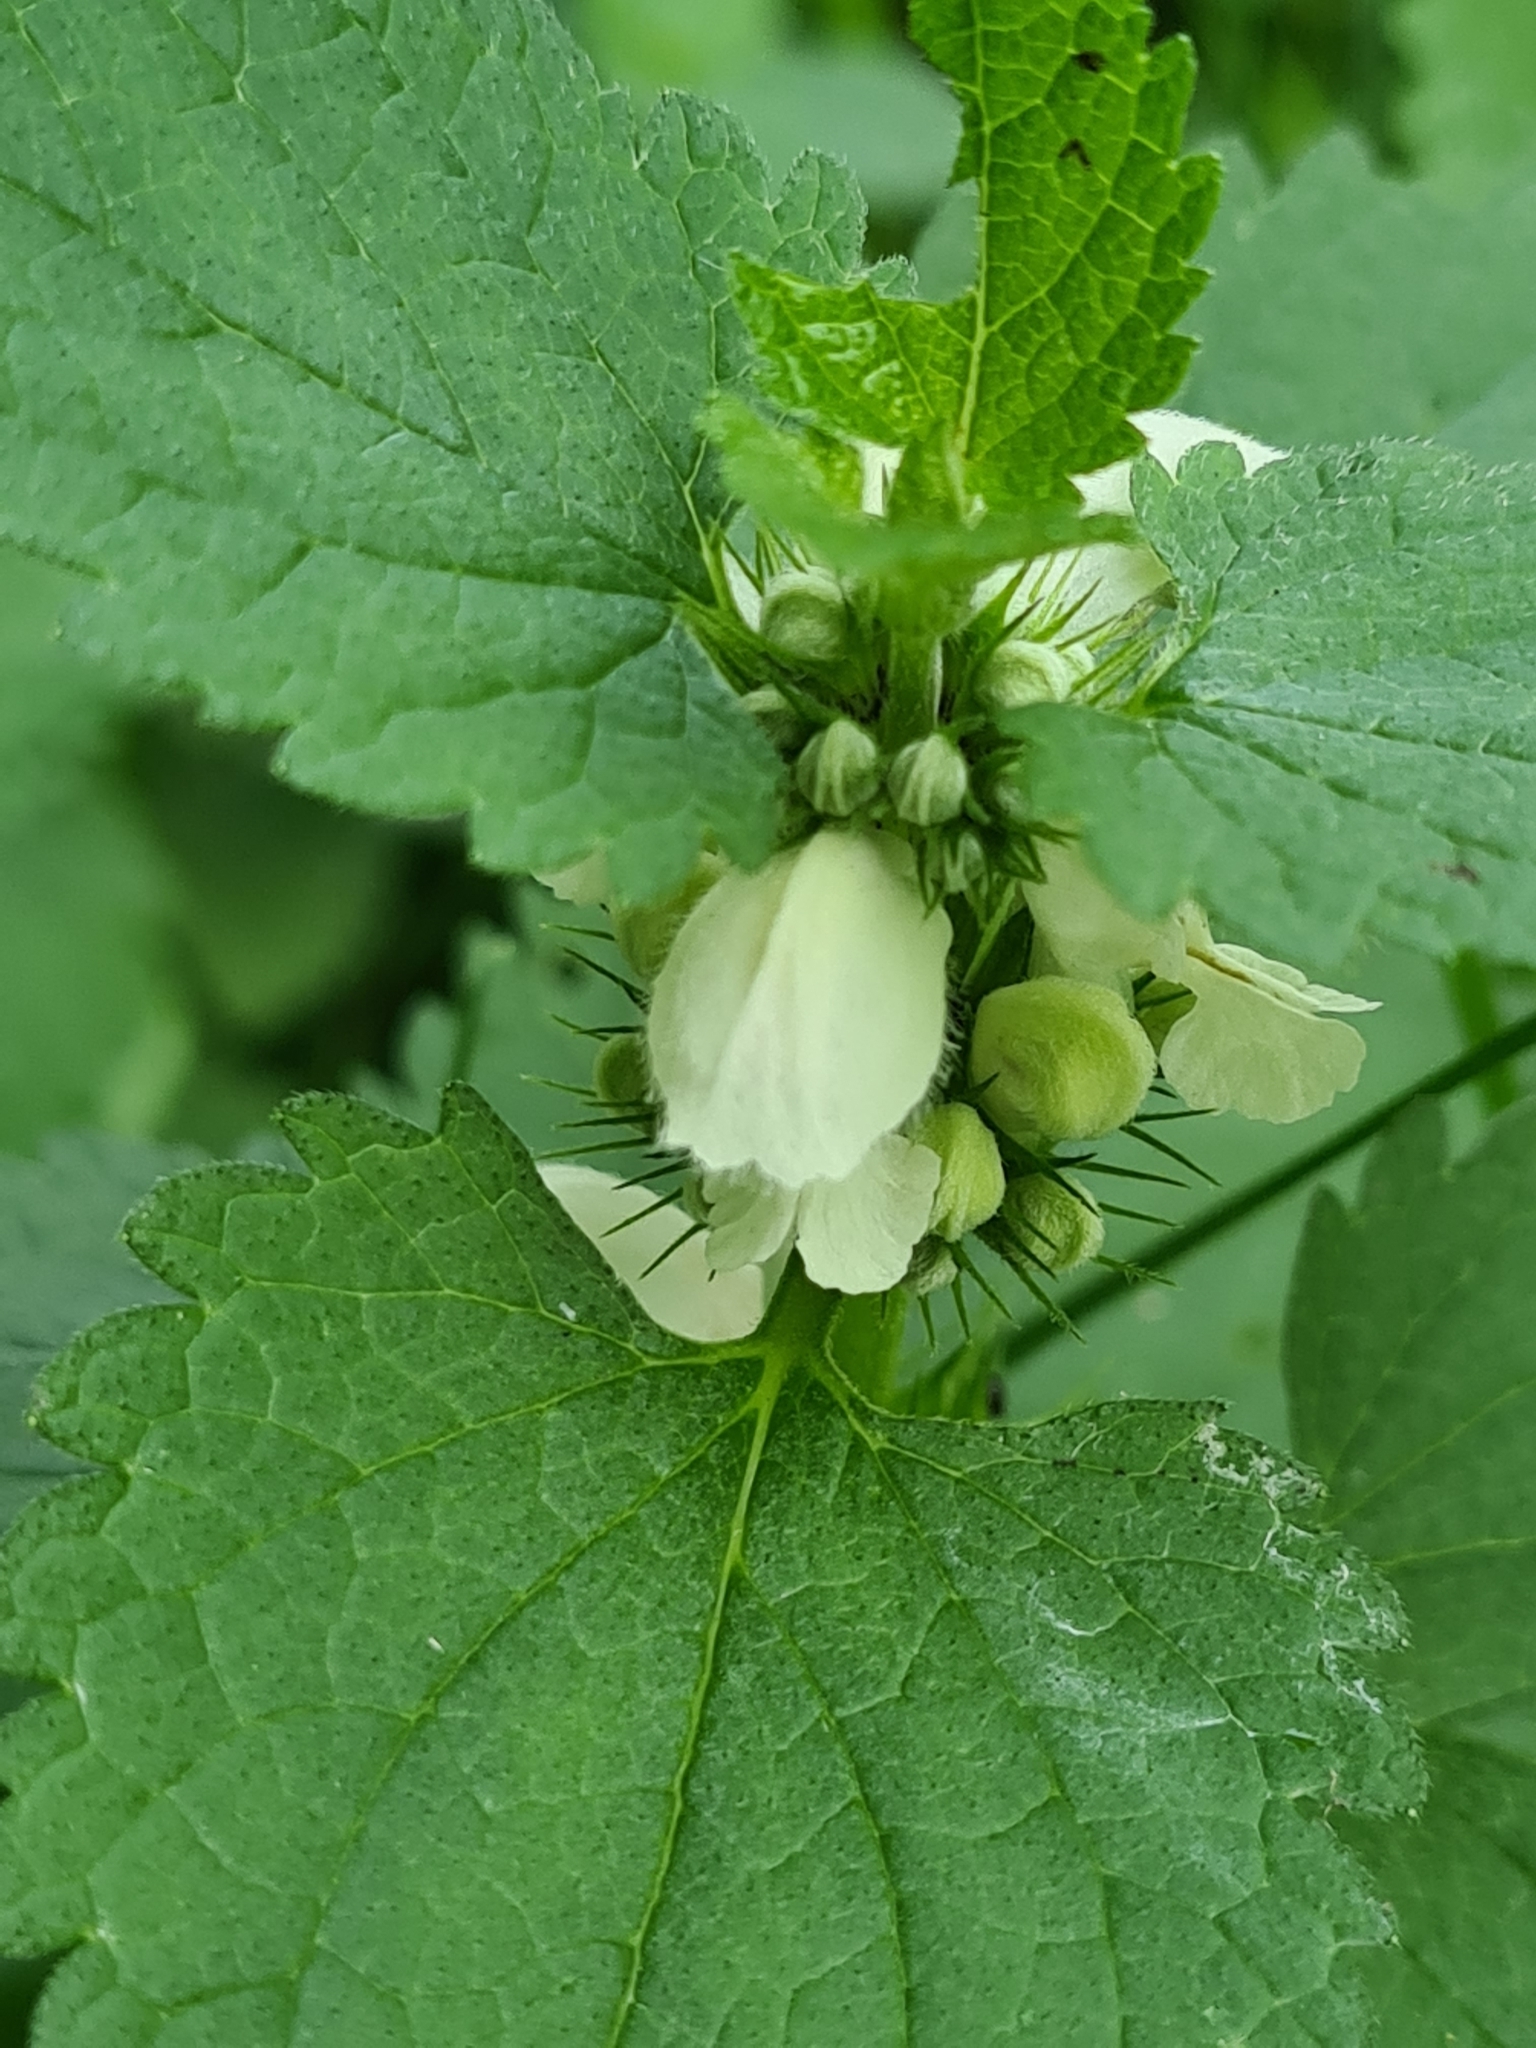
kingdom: Plantae
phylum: Tracheophyta
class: Magnoliopsida
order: Lamiales
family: Lamiaceae
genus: Lamium
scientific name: Lamium album
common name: White dead-nettle
